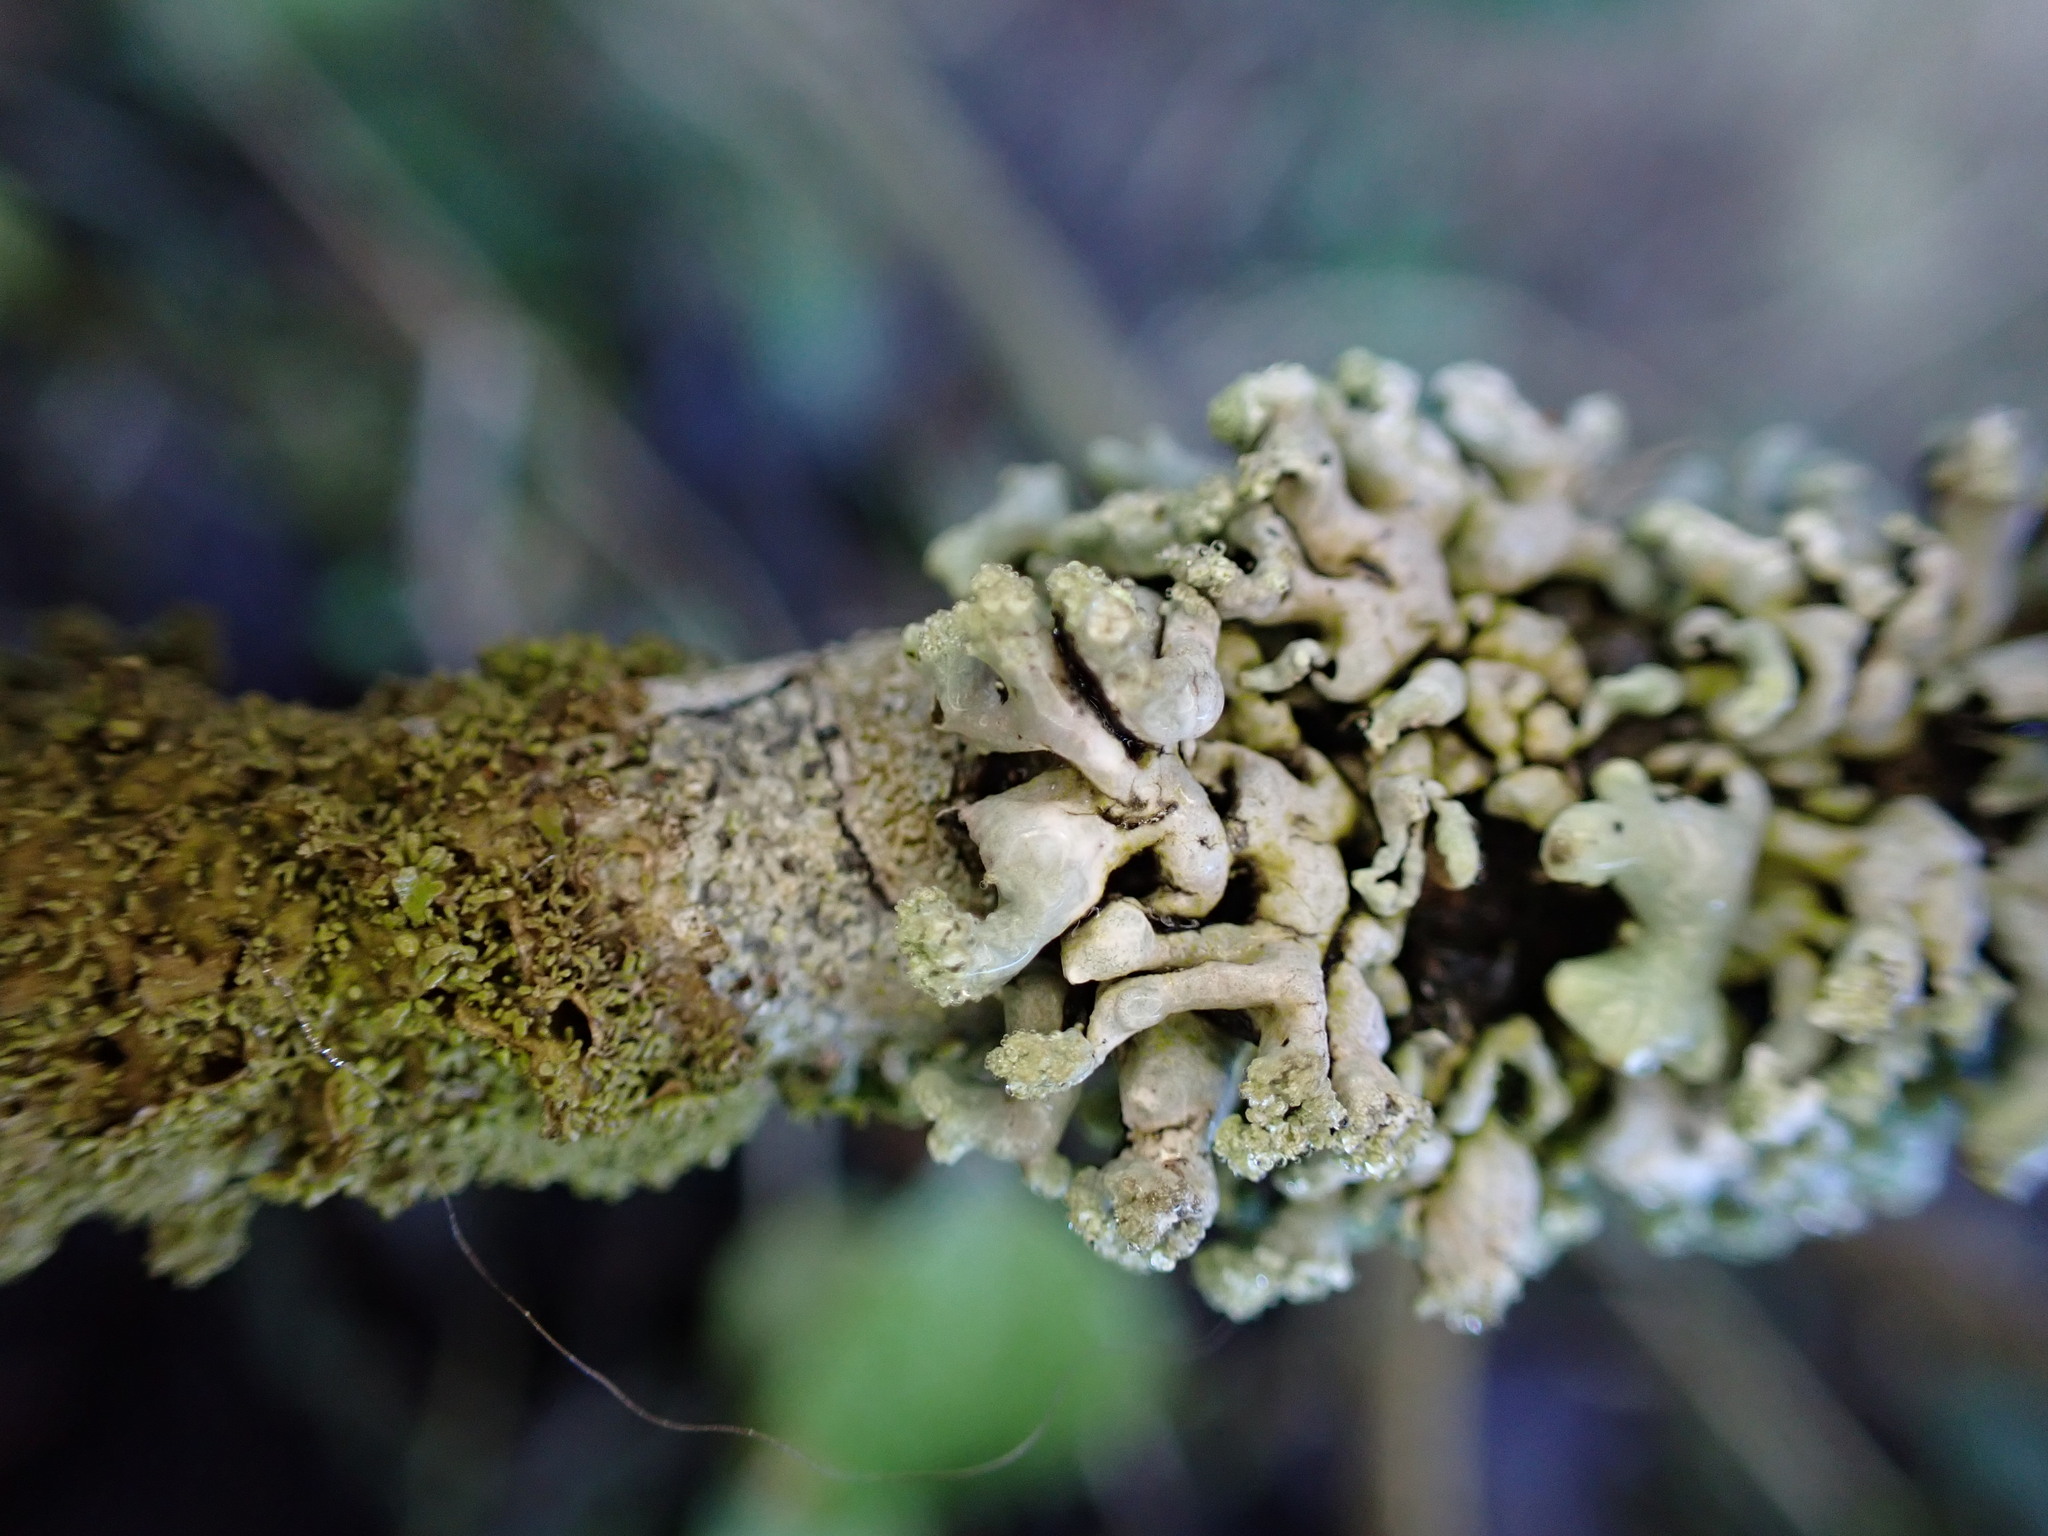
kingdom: Fungi
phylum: Ascomycota
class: Lecanoromycetes
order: Lecanorales
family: Parmeliaceae
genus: Hypogymnia
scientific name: Hypogymnia tubulosa
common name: Powder-headed tube lichen
